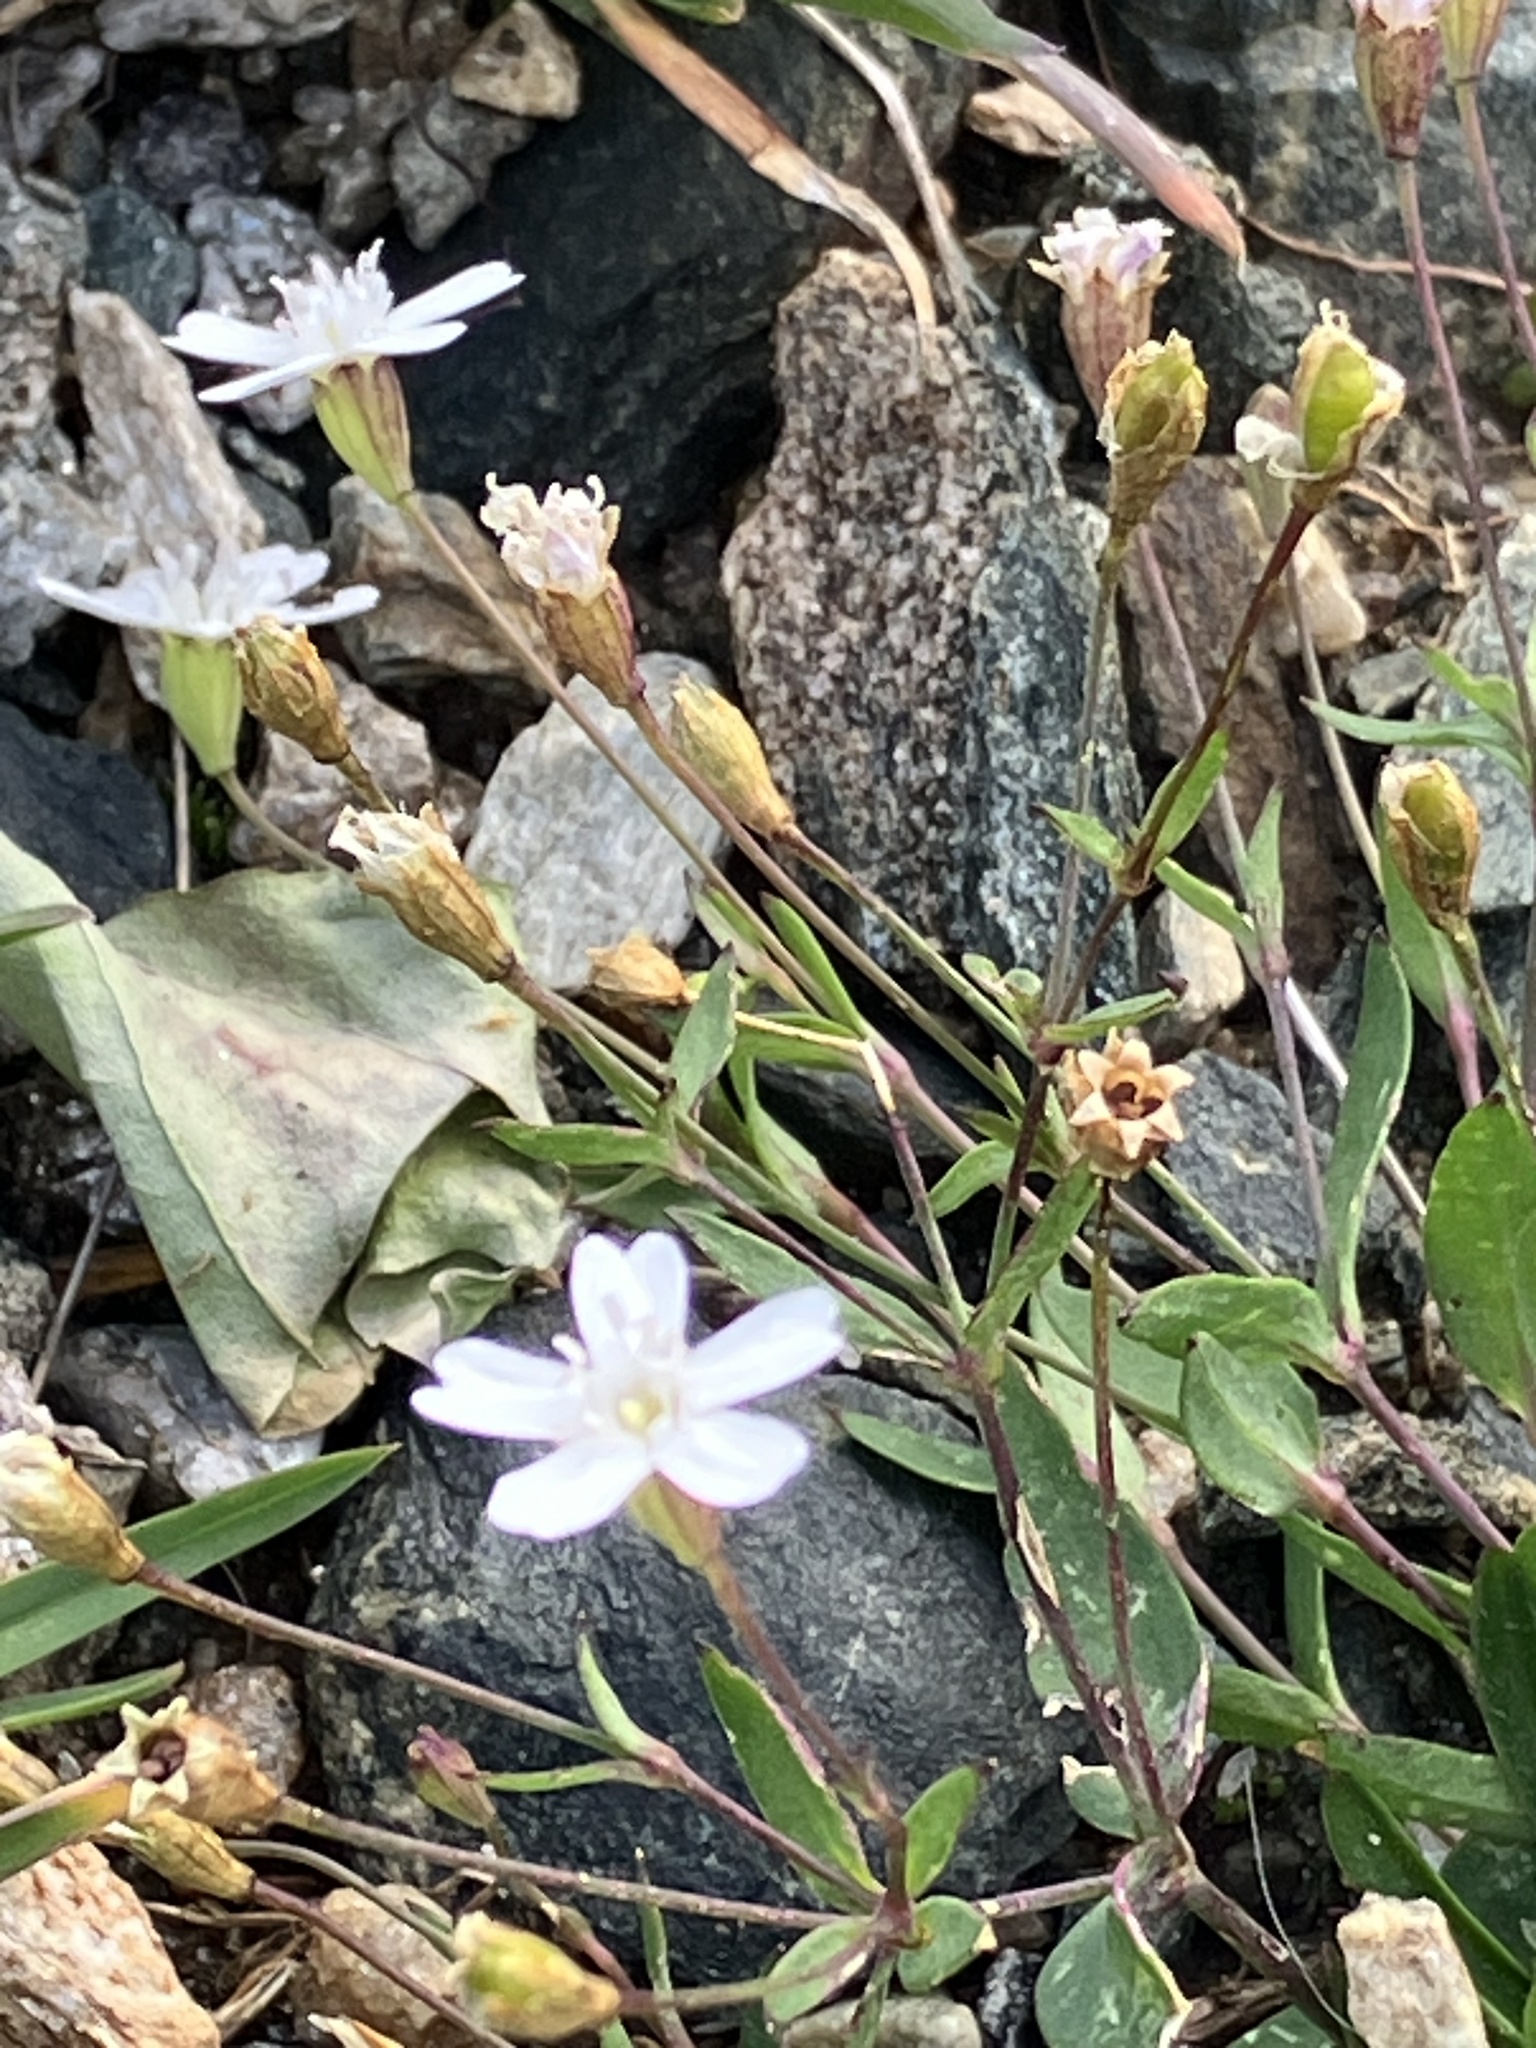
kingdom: Plantae
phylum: Tracheophyta
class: Magnoliopsida
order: Caryophyllales
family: Caryophyllaceae
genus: Atocion
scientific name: Atocion rupestre
